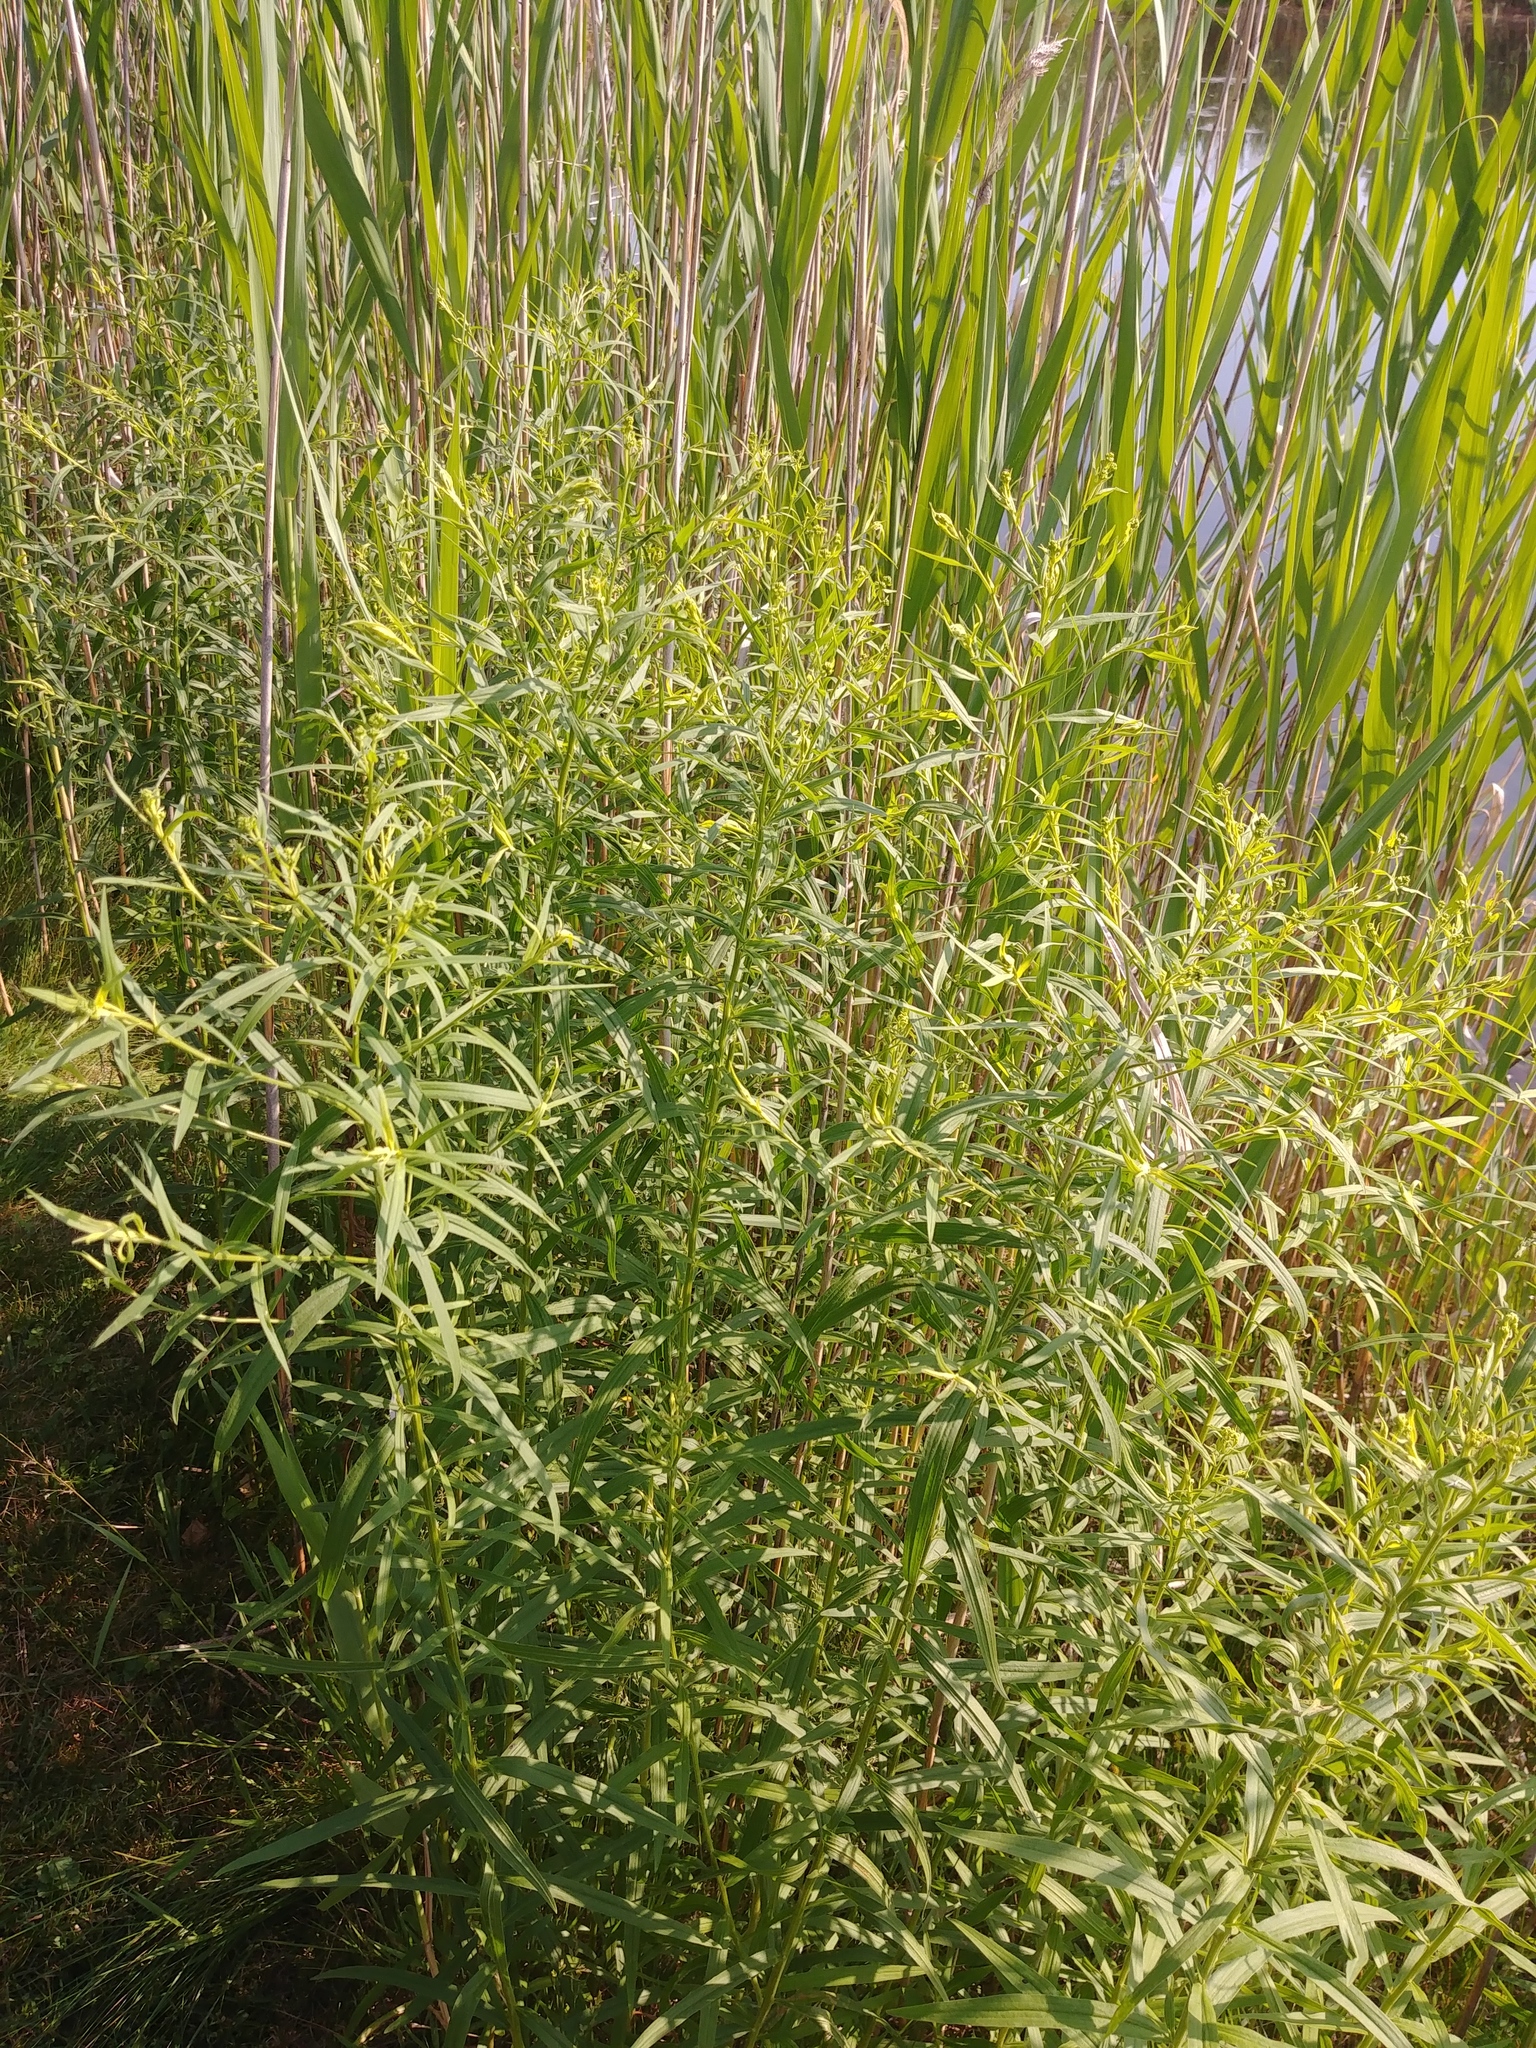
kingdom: Plantae
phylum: Tracheophyta
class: Magnoliopsida
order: Asterales
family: Asteraceae
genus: Artemisia
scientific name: Artemisia vulgaris
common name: Mugwort
